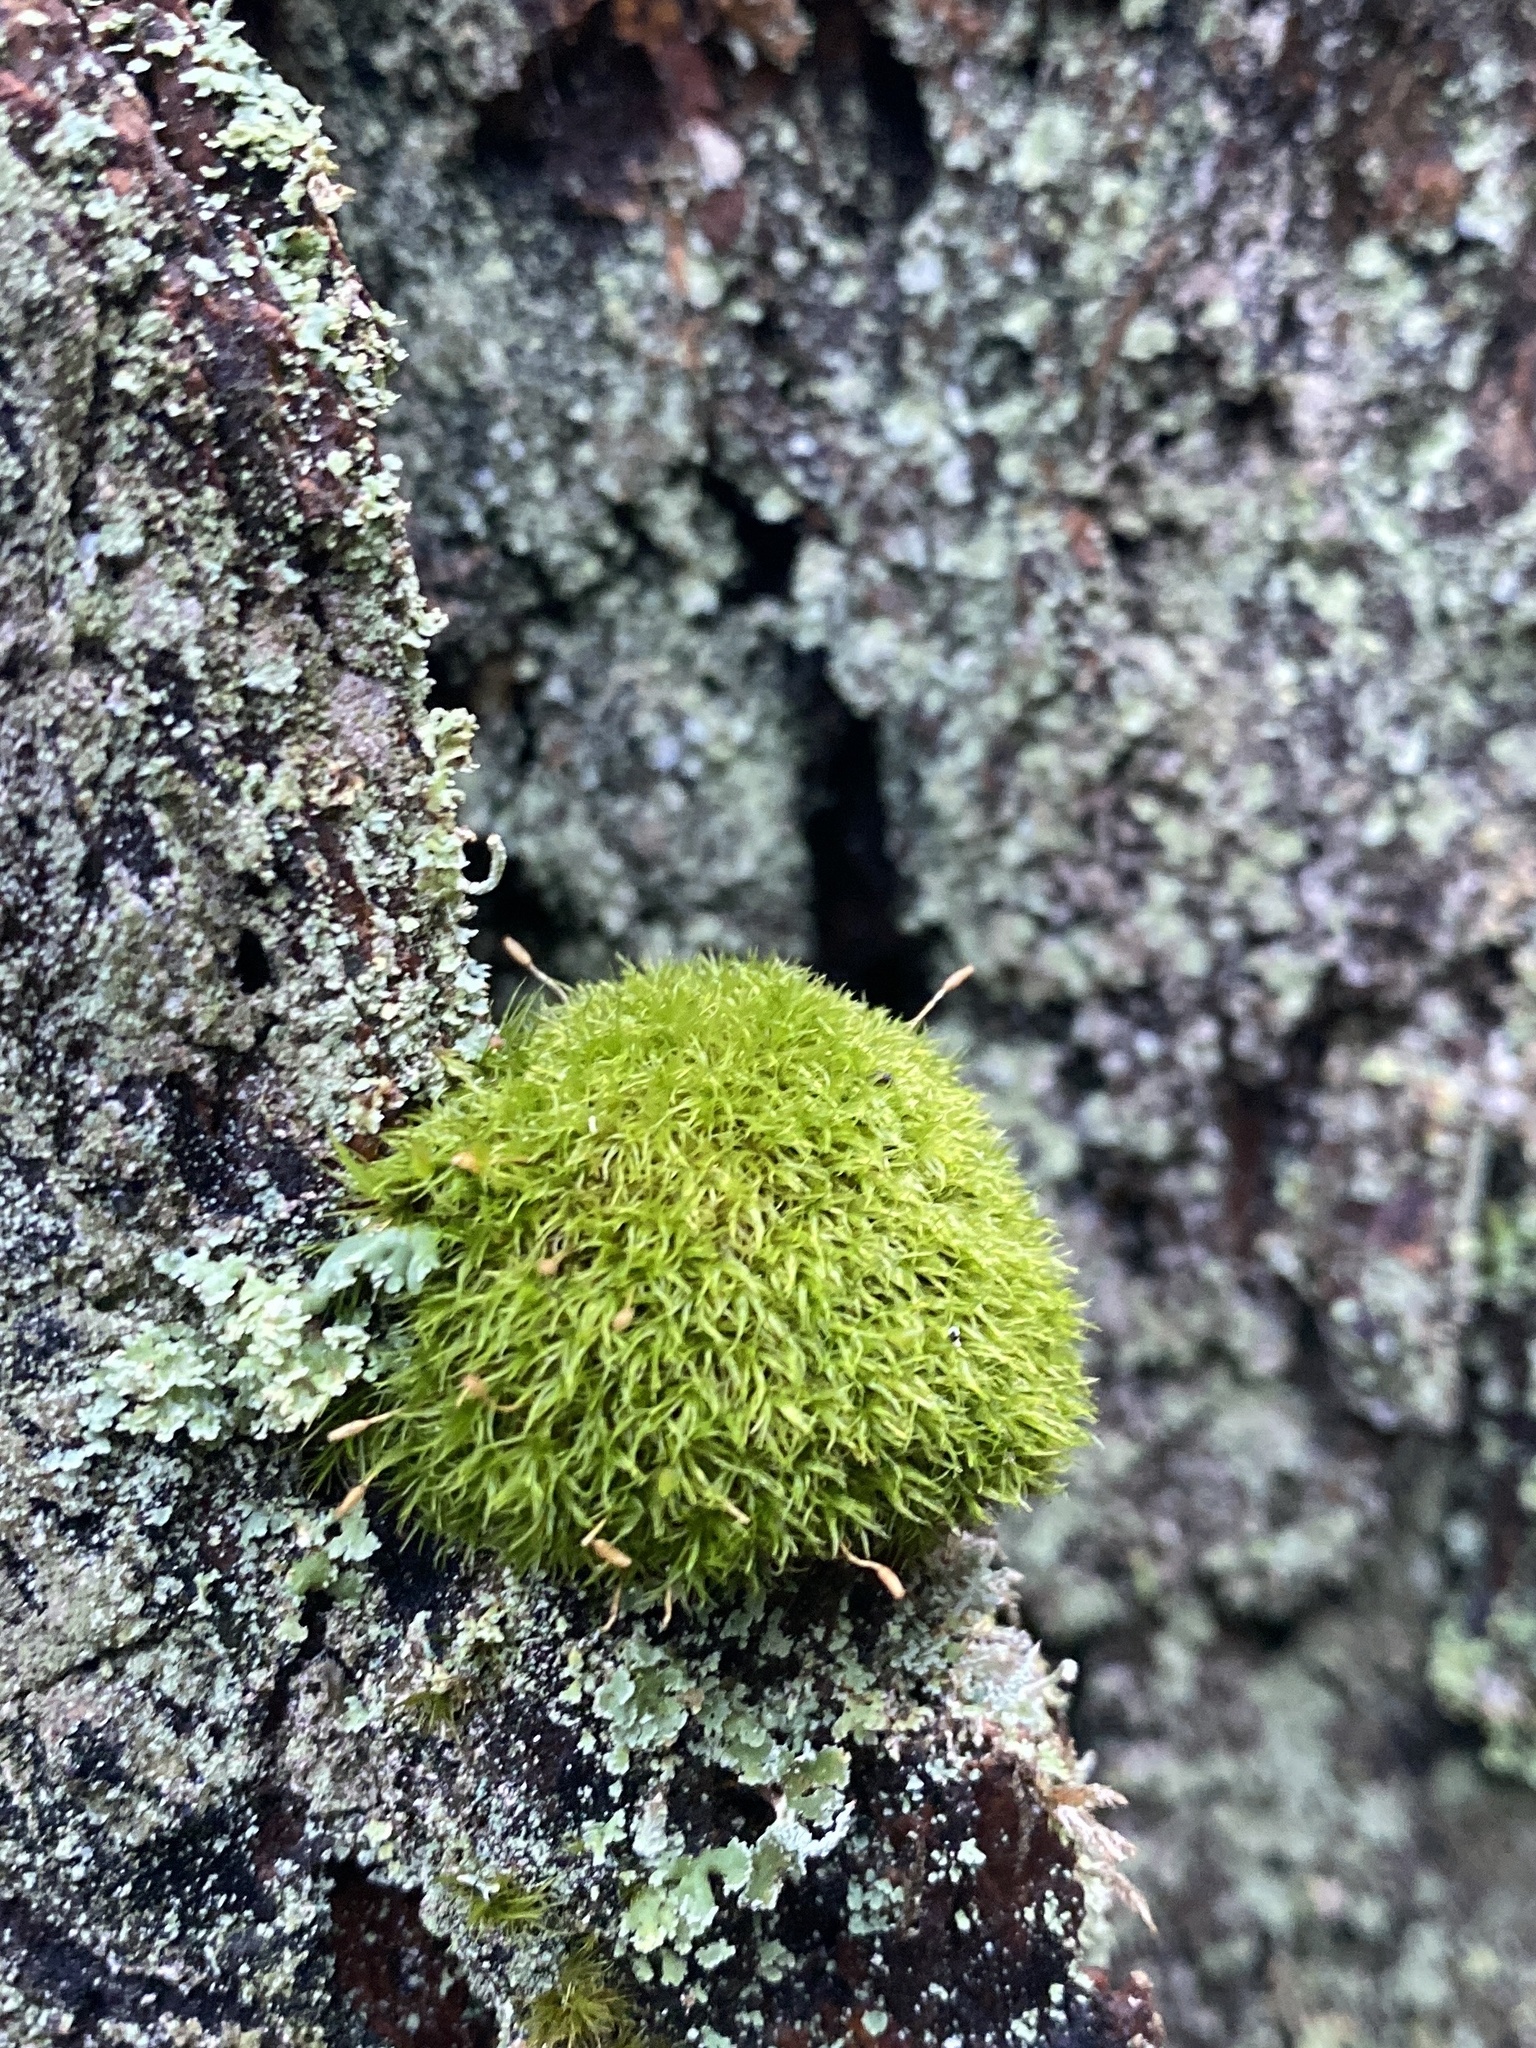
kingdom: Plantae
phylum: Bryophyta
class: Bryopsida
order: Dicranales
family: Rhabdoweisiaceae
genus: Dicranoweisia
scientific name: Dicranoweisia cirrata
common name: Common pincushion
